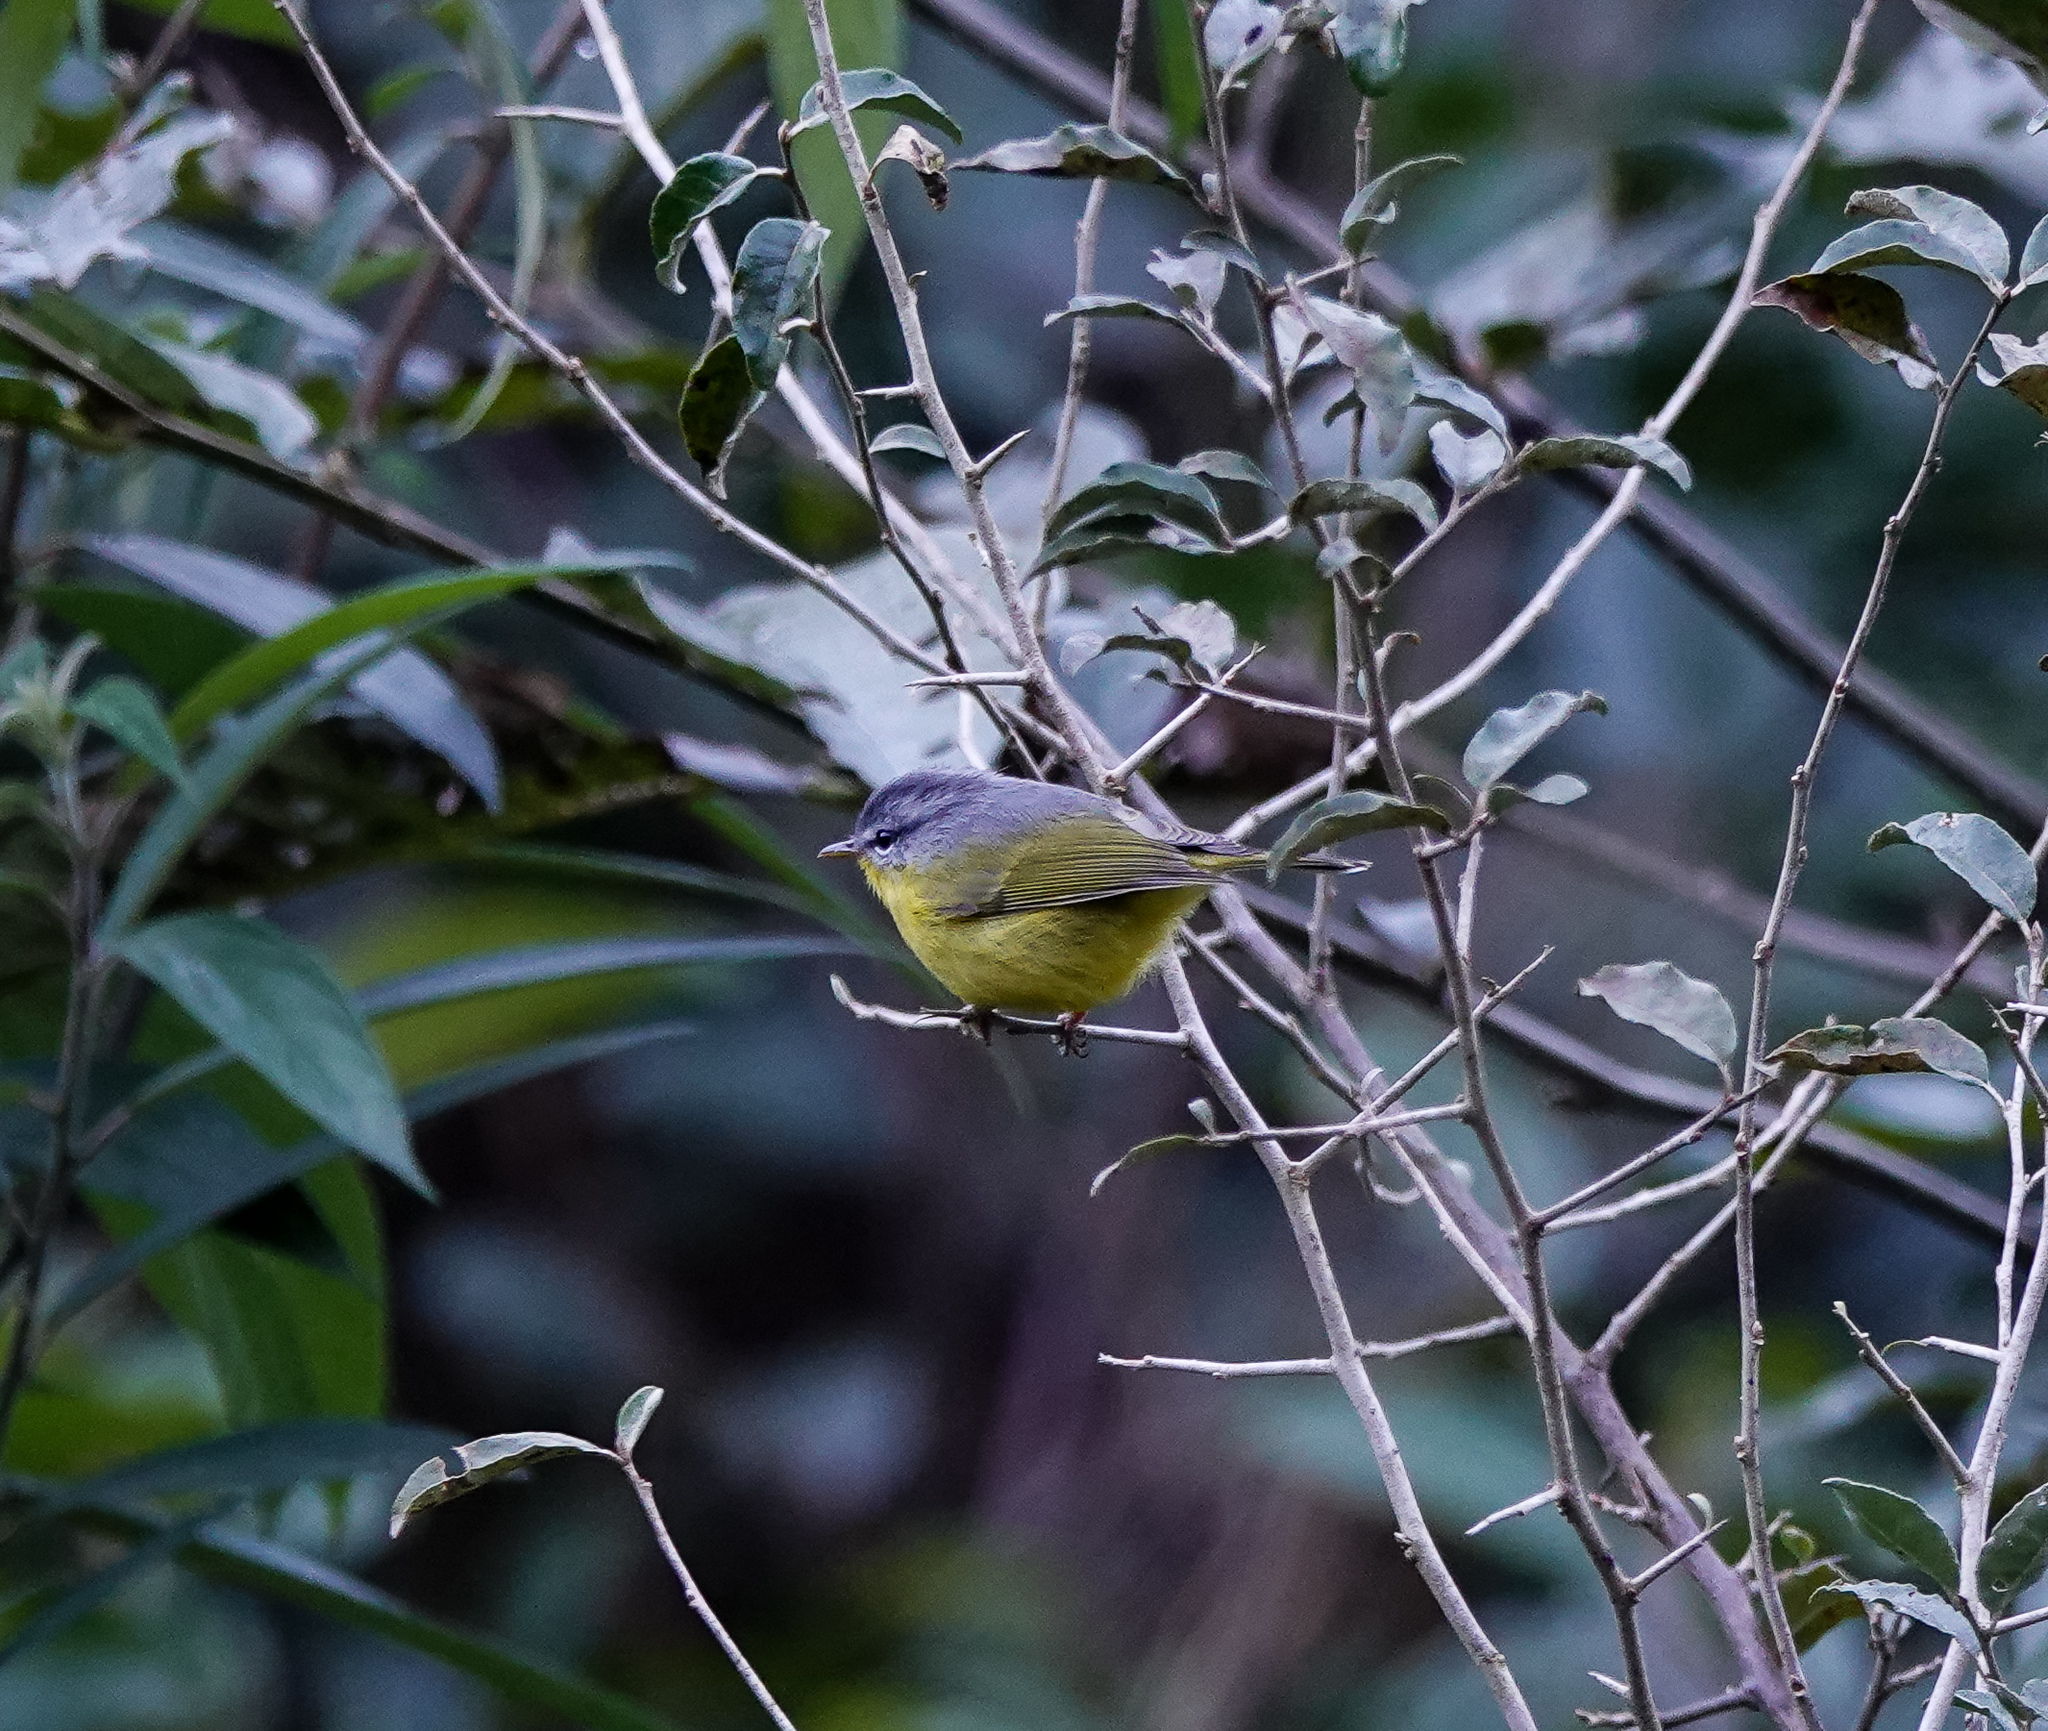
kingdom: Animalia
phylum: Chordata
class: Aves
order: Passeriformes
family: Phylloscopidae
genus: Phylloscopus
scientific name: Phylloscopus xanthoschistos
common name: Grey-hooded warbler
